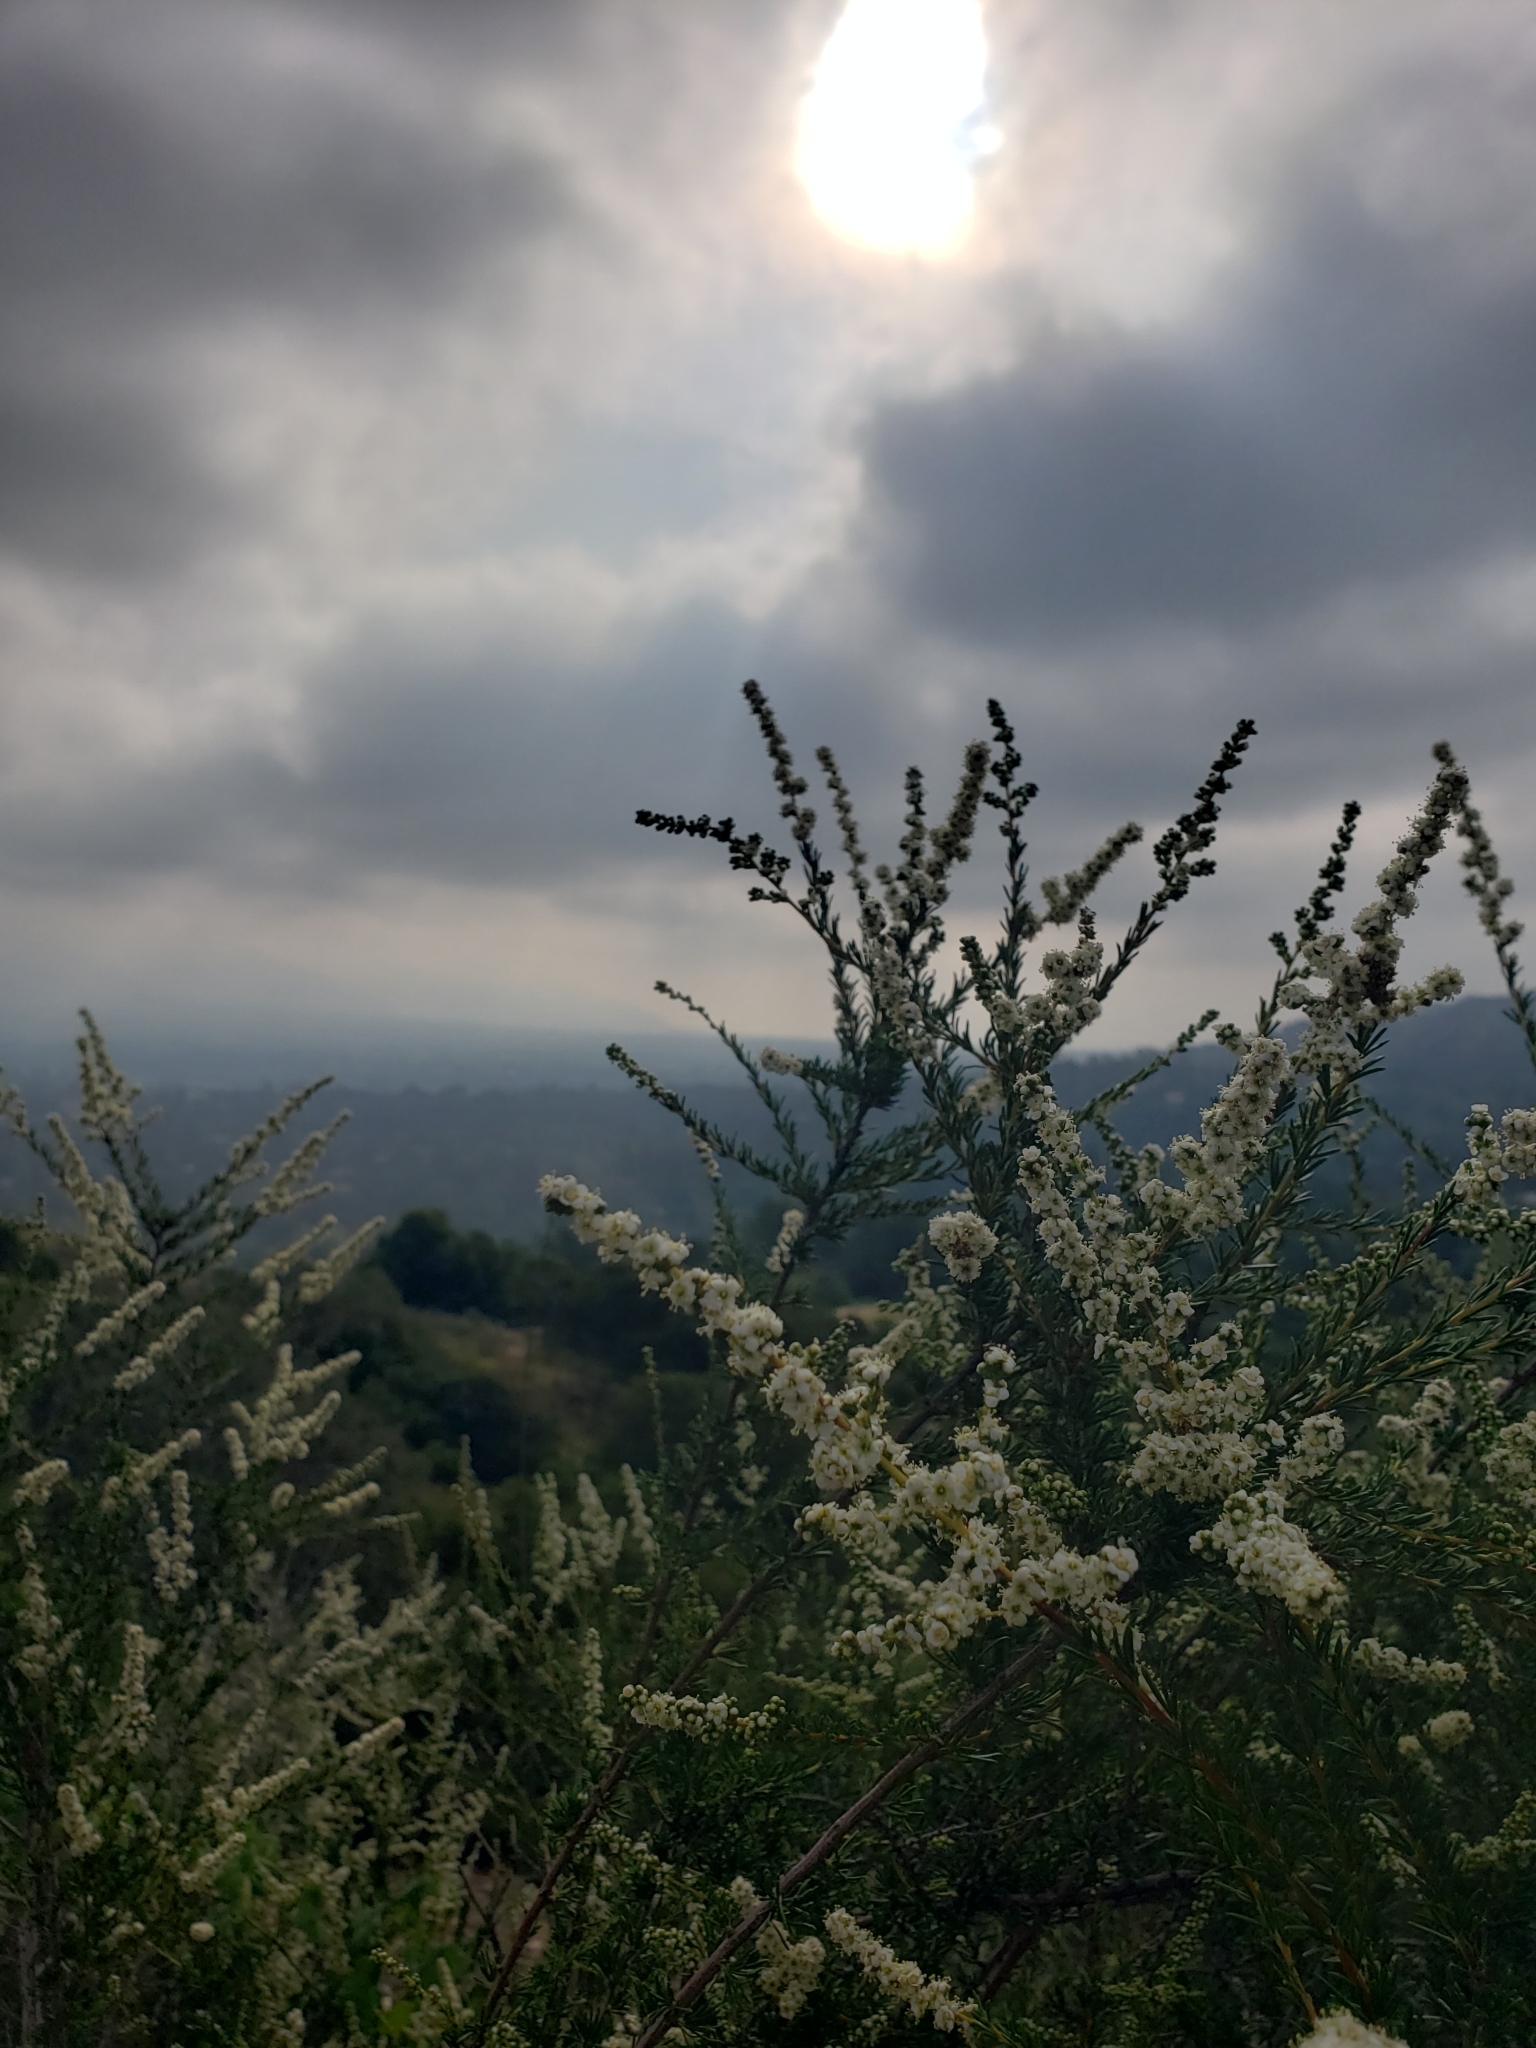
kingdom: Plantae
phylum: Tracheophyta
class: Magnoliopsida
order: Rosales
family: Rosaceae
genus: Adenostoma
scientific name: Adenostoma fasciculatum
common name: Chamise
